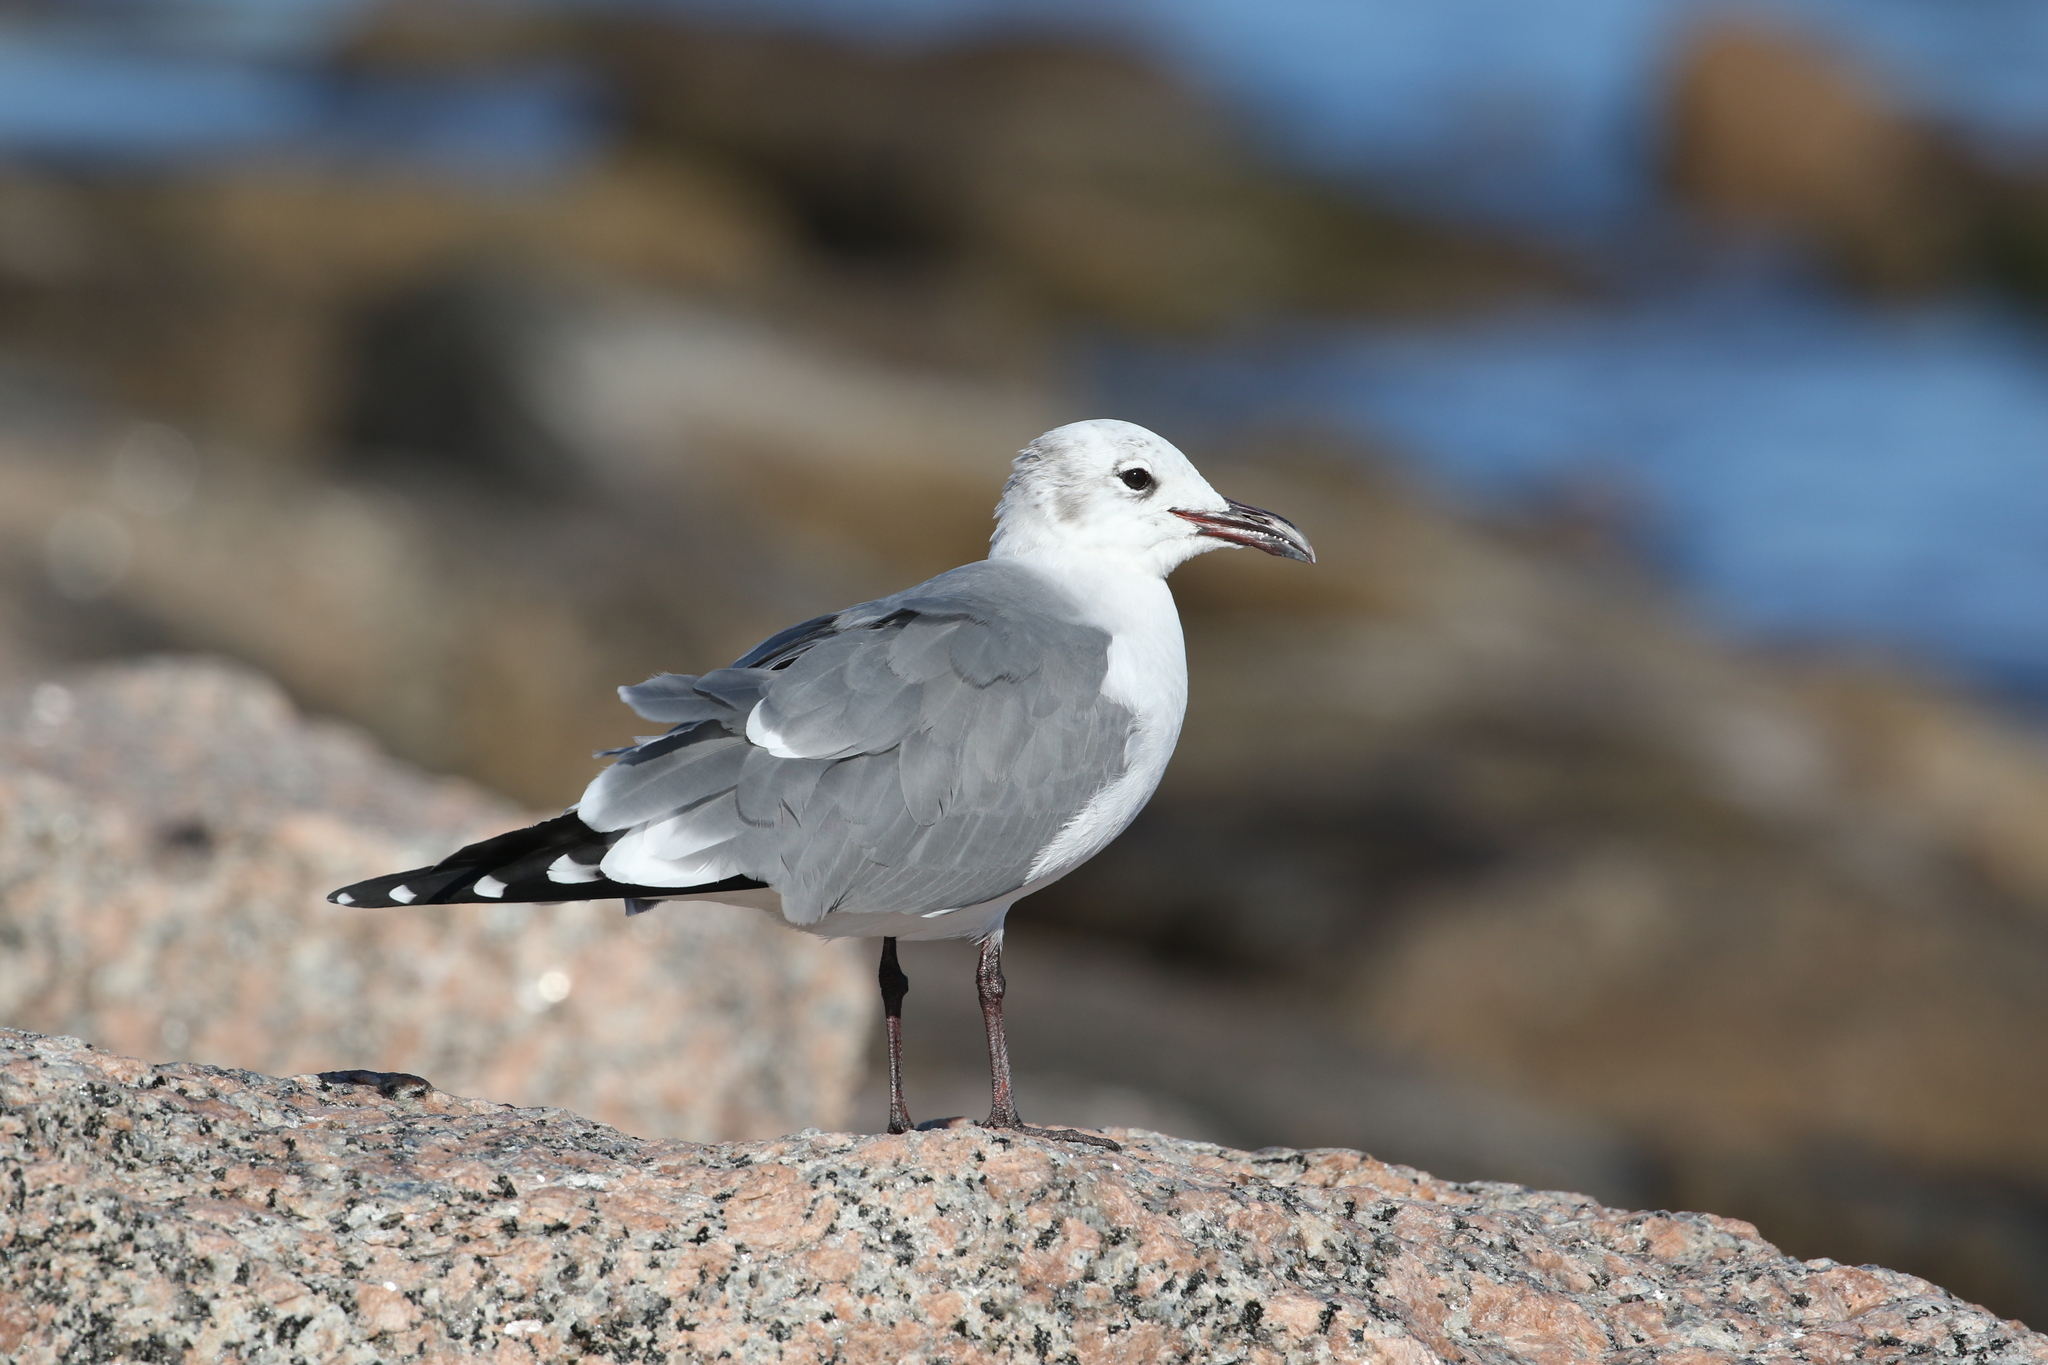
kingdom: Animalia
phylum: Chordata
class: Aves
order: Charadriiformes
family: Laridae
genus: Leucophaeus
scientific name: Leucophaeus atricilla
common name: Laughing gull
